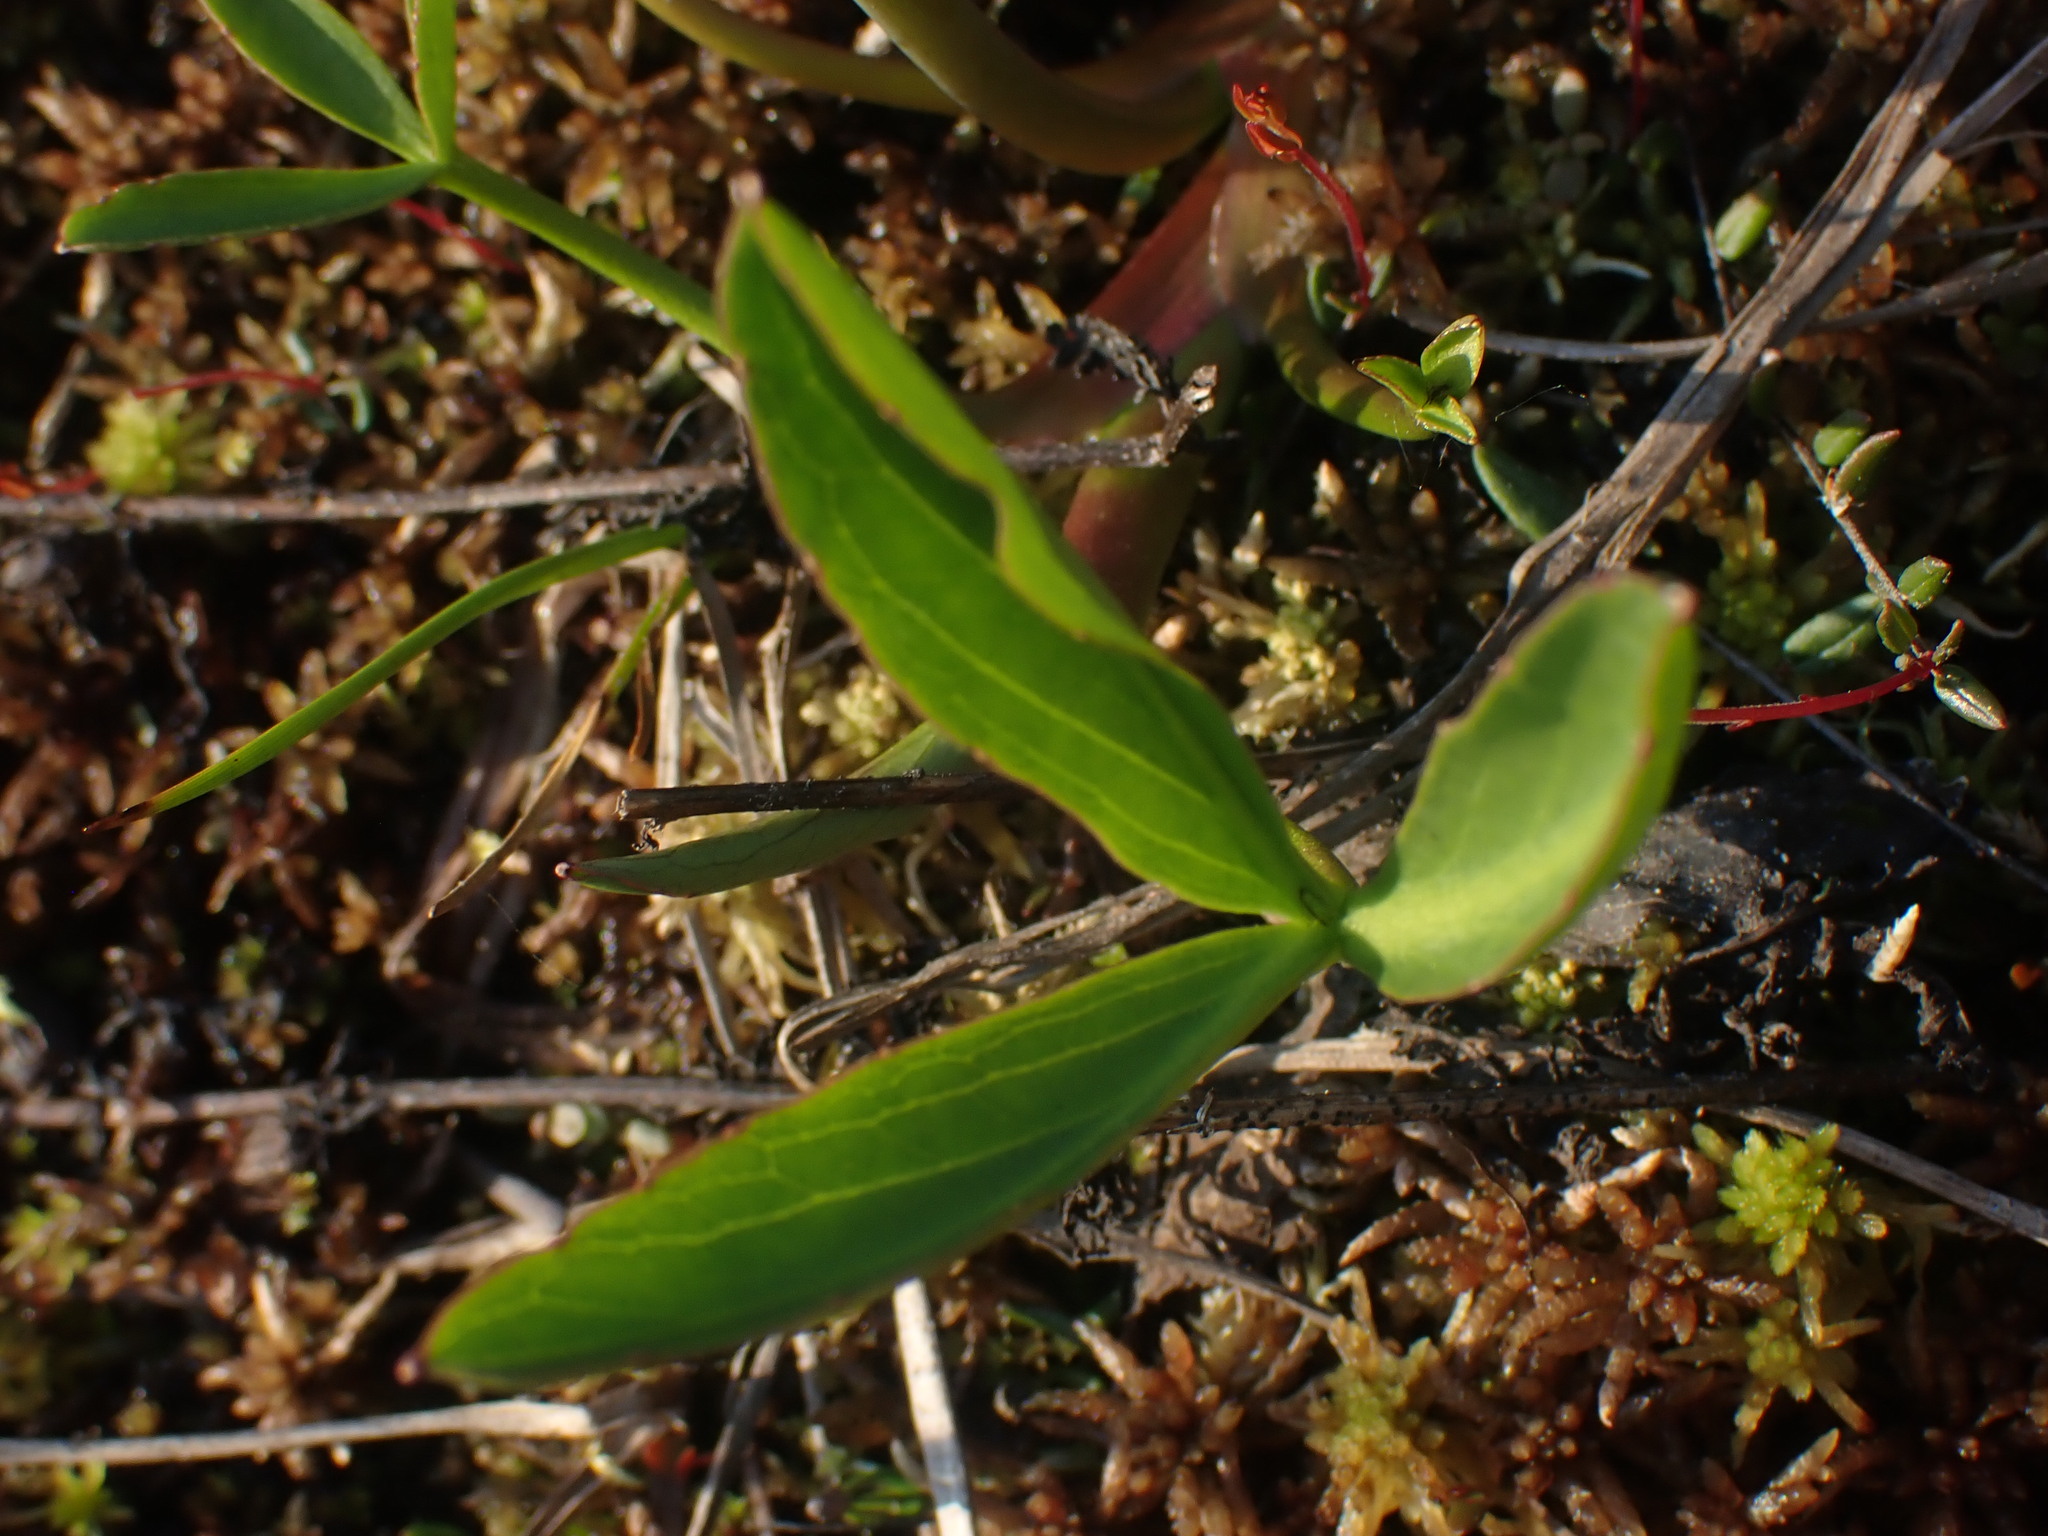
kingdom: Plantae
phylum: Tracheophyta
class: Magnoliopsida
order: Asterales
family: Menyanthaceae
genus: Menyanthes
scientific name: Menyanthes trifoliata
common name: Bogbean
